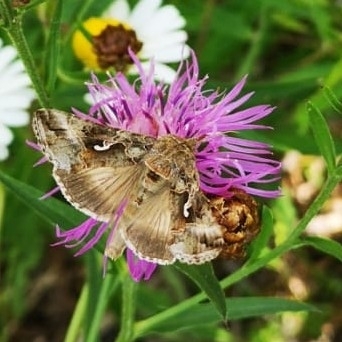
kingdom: Animalia
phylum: Arthropoda
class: Insecta
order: Lepidoptera
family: Noctuidae
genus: Autographa
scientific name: Autographa gamma
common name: Silver y
